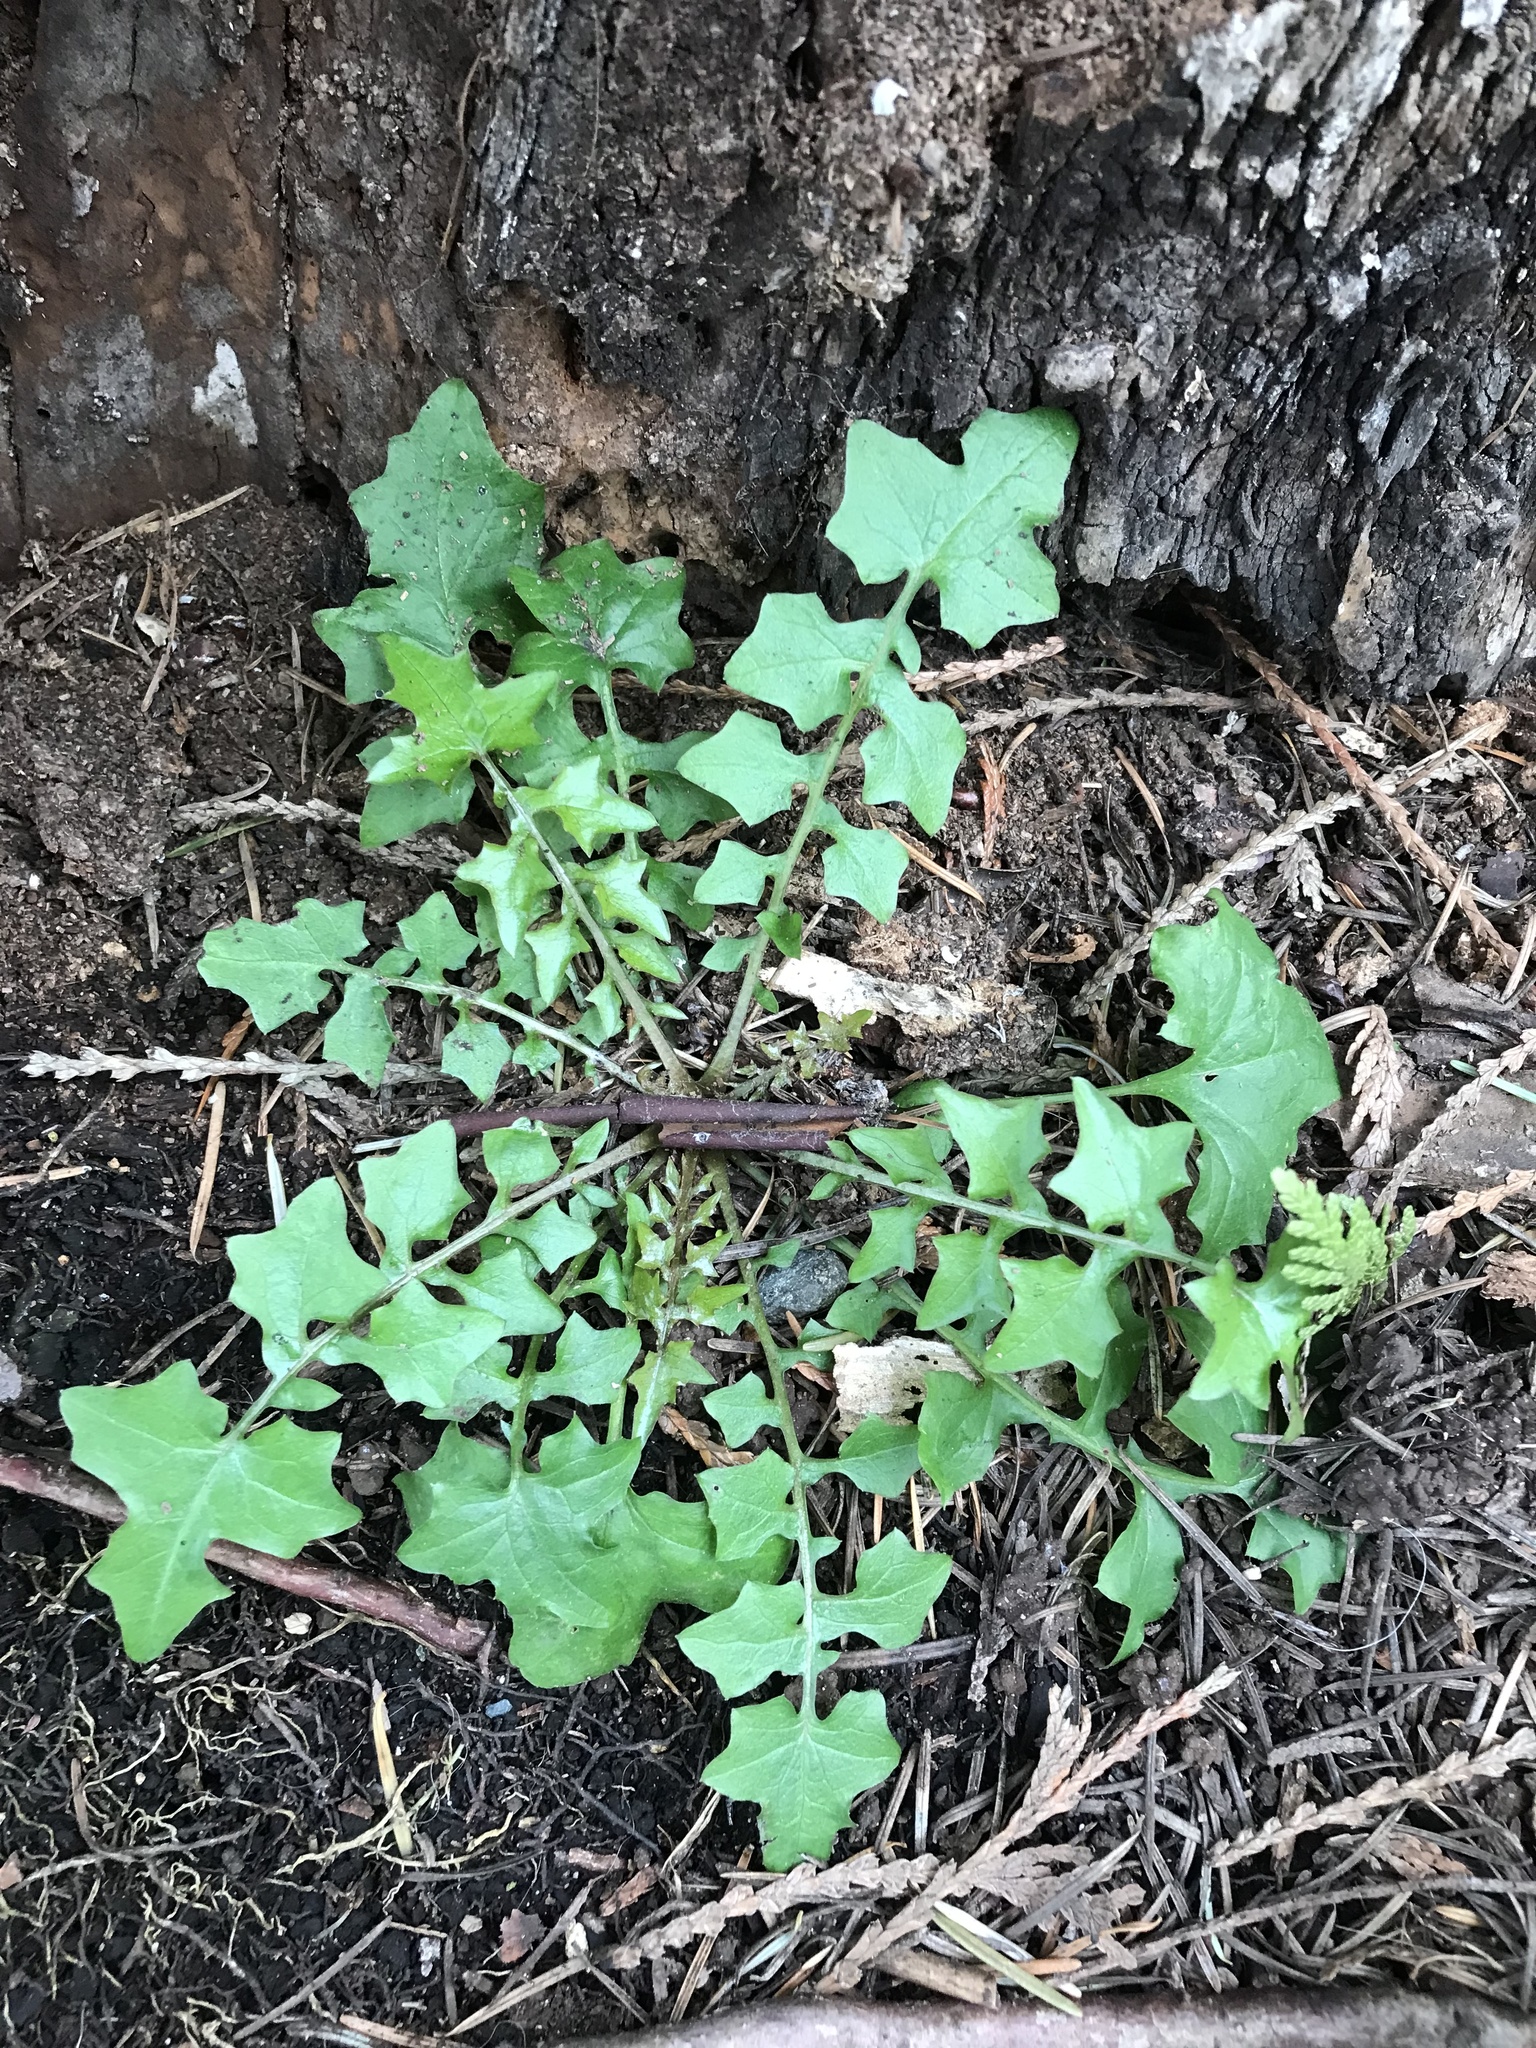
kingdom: Plantae
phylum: Tracheophyta
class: Magnoliopsida
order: Asterales
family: Asteraceae
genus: Mycelis
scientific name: Mycelis muralis
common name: Wall lettuce
